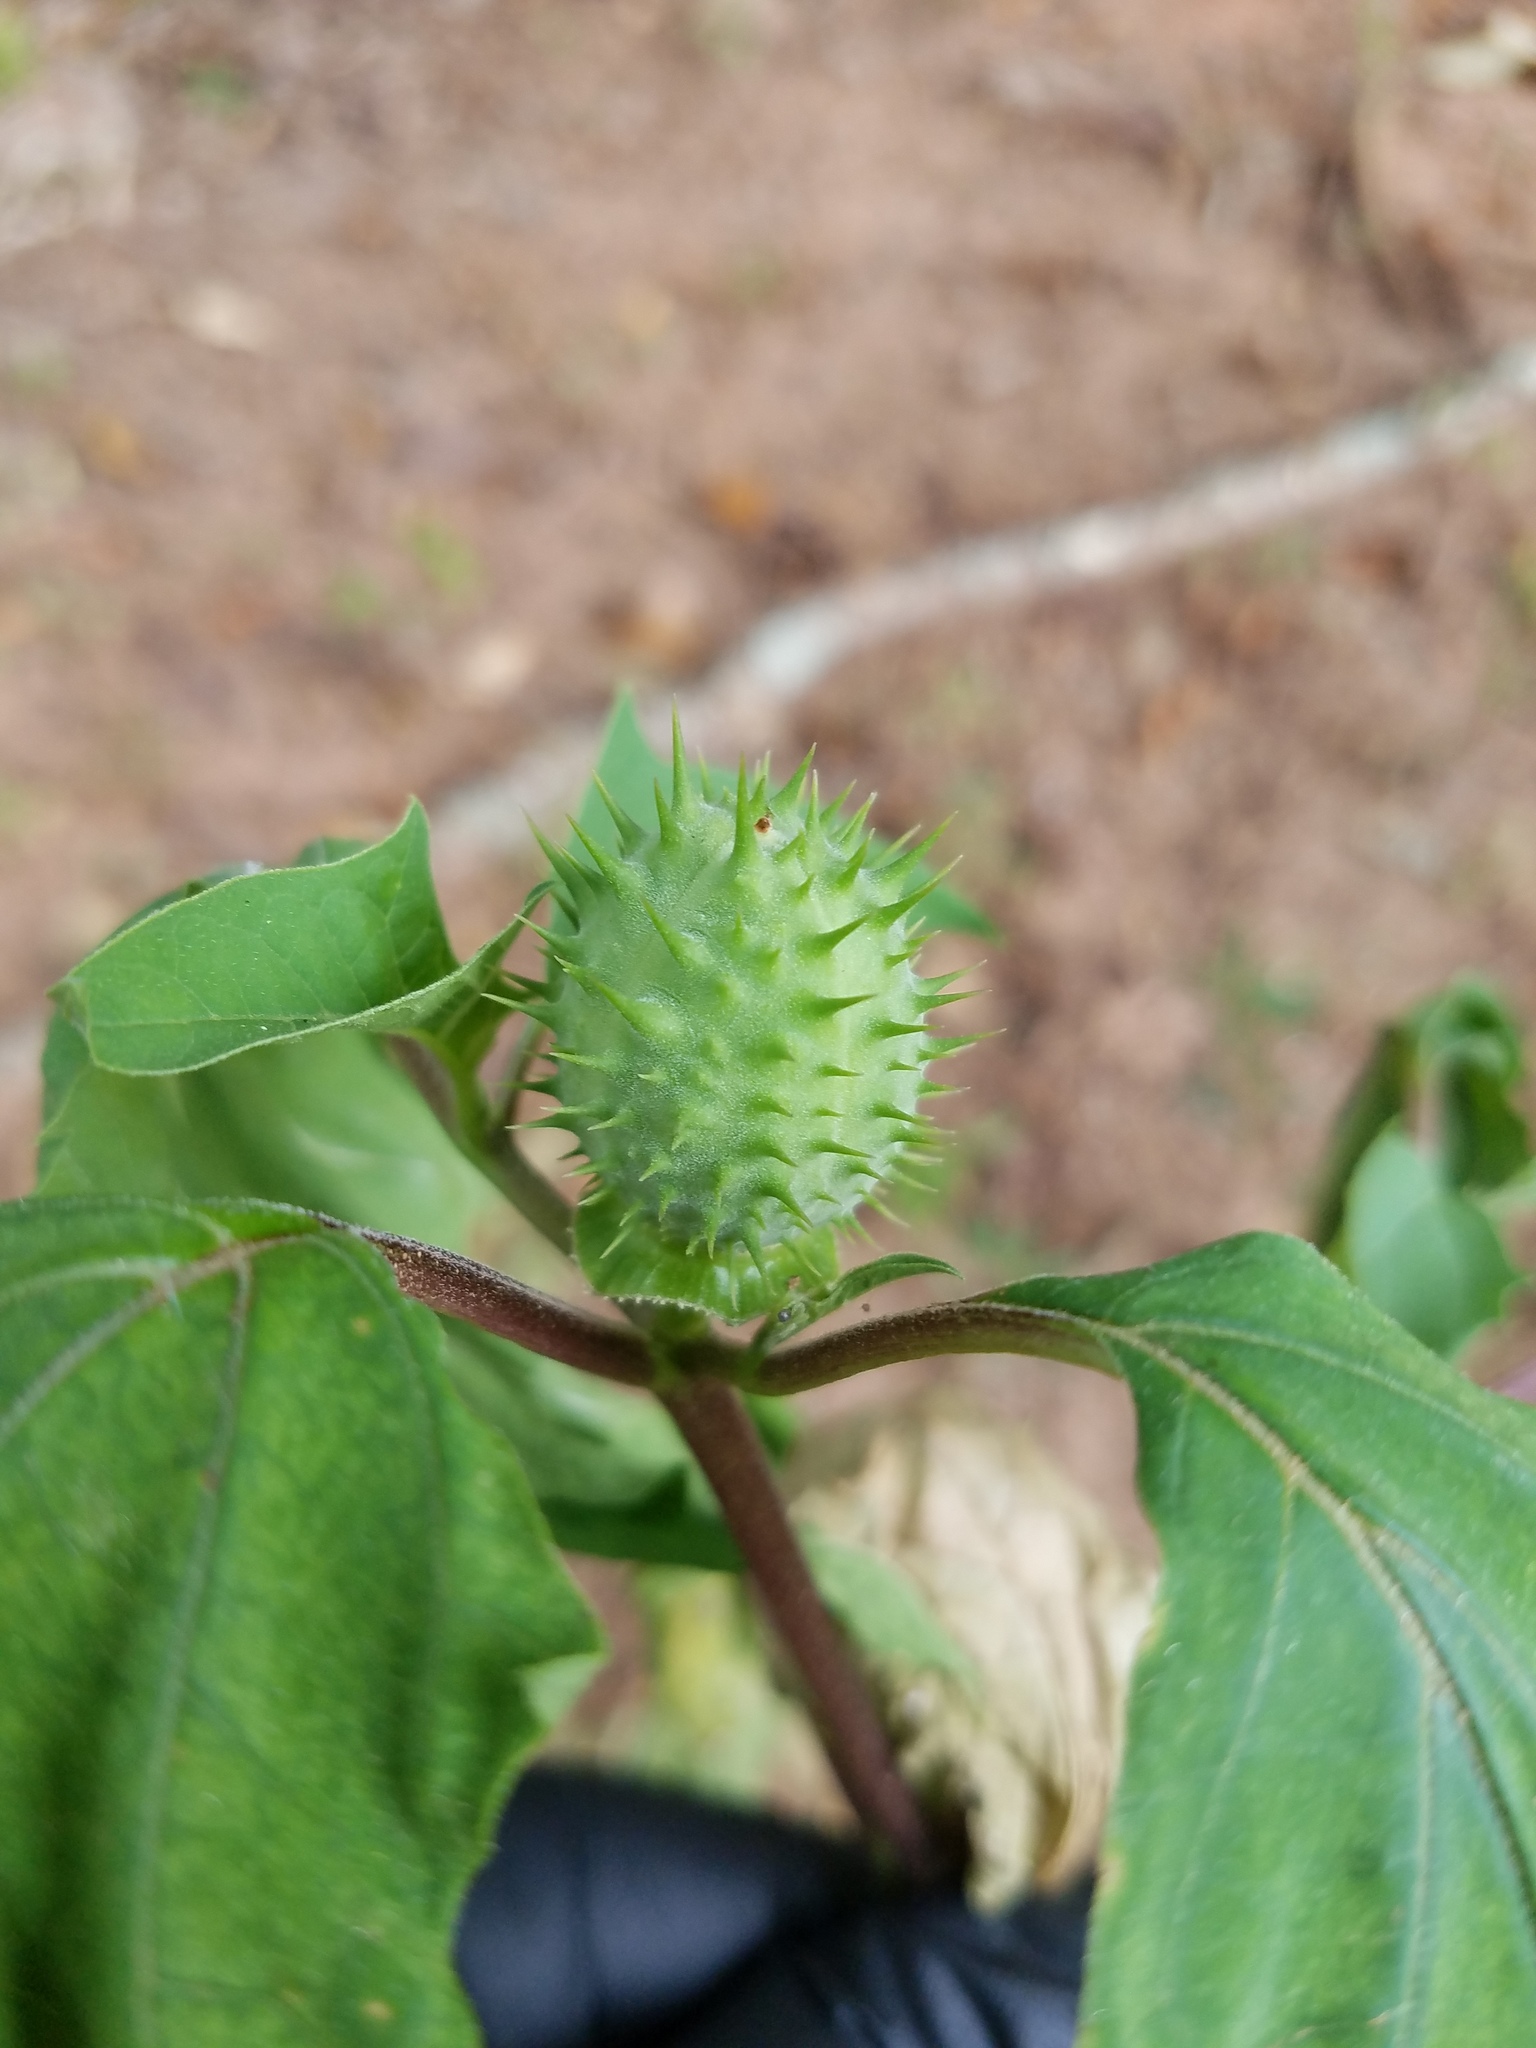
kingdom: Plantae
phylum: Tracheophyta
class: Magnoliopsida
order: Solanales
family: Solanaceae
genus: Datura
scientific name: Datura stramonium
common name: Thorn-apple
